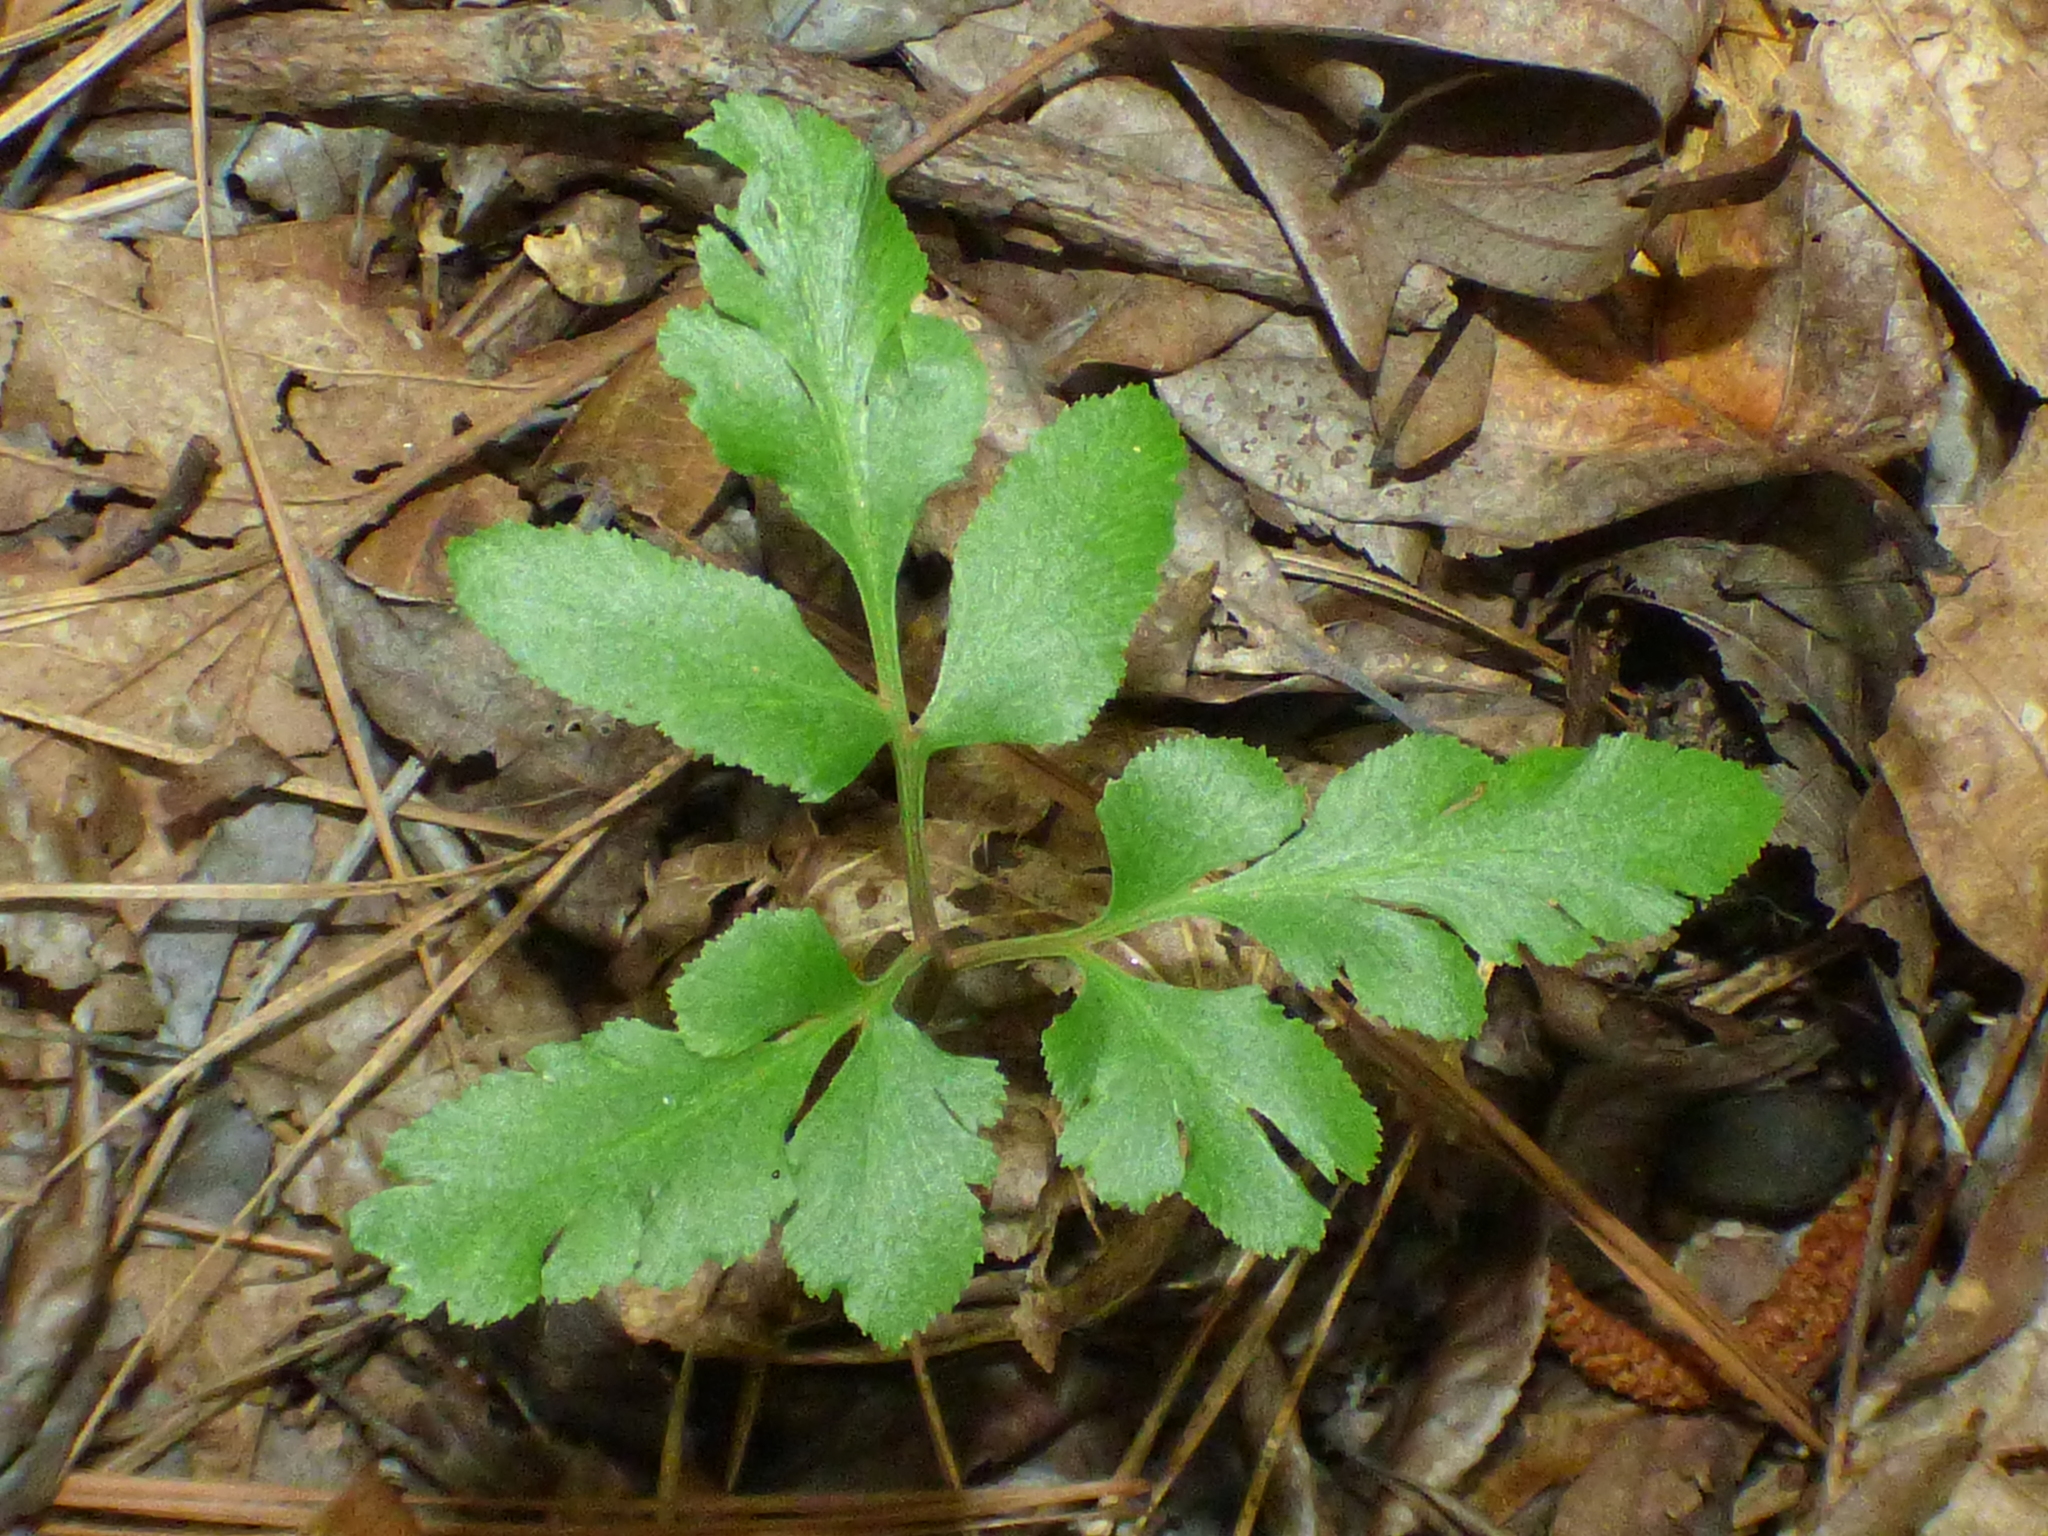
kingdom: Plantae
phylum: Tracheophyta
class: Polypodiopsida
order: Ophioglossales
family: Ophioglossaceae
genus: Sceptridium
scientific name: Sceptridium biternatum
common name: Sparse-lobed grapefern
